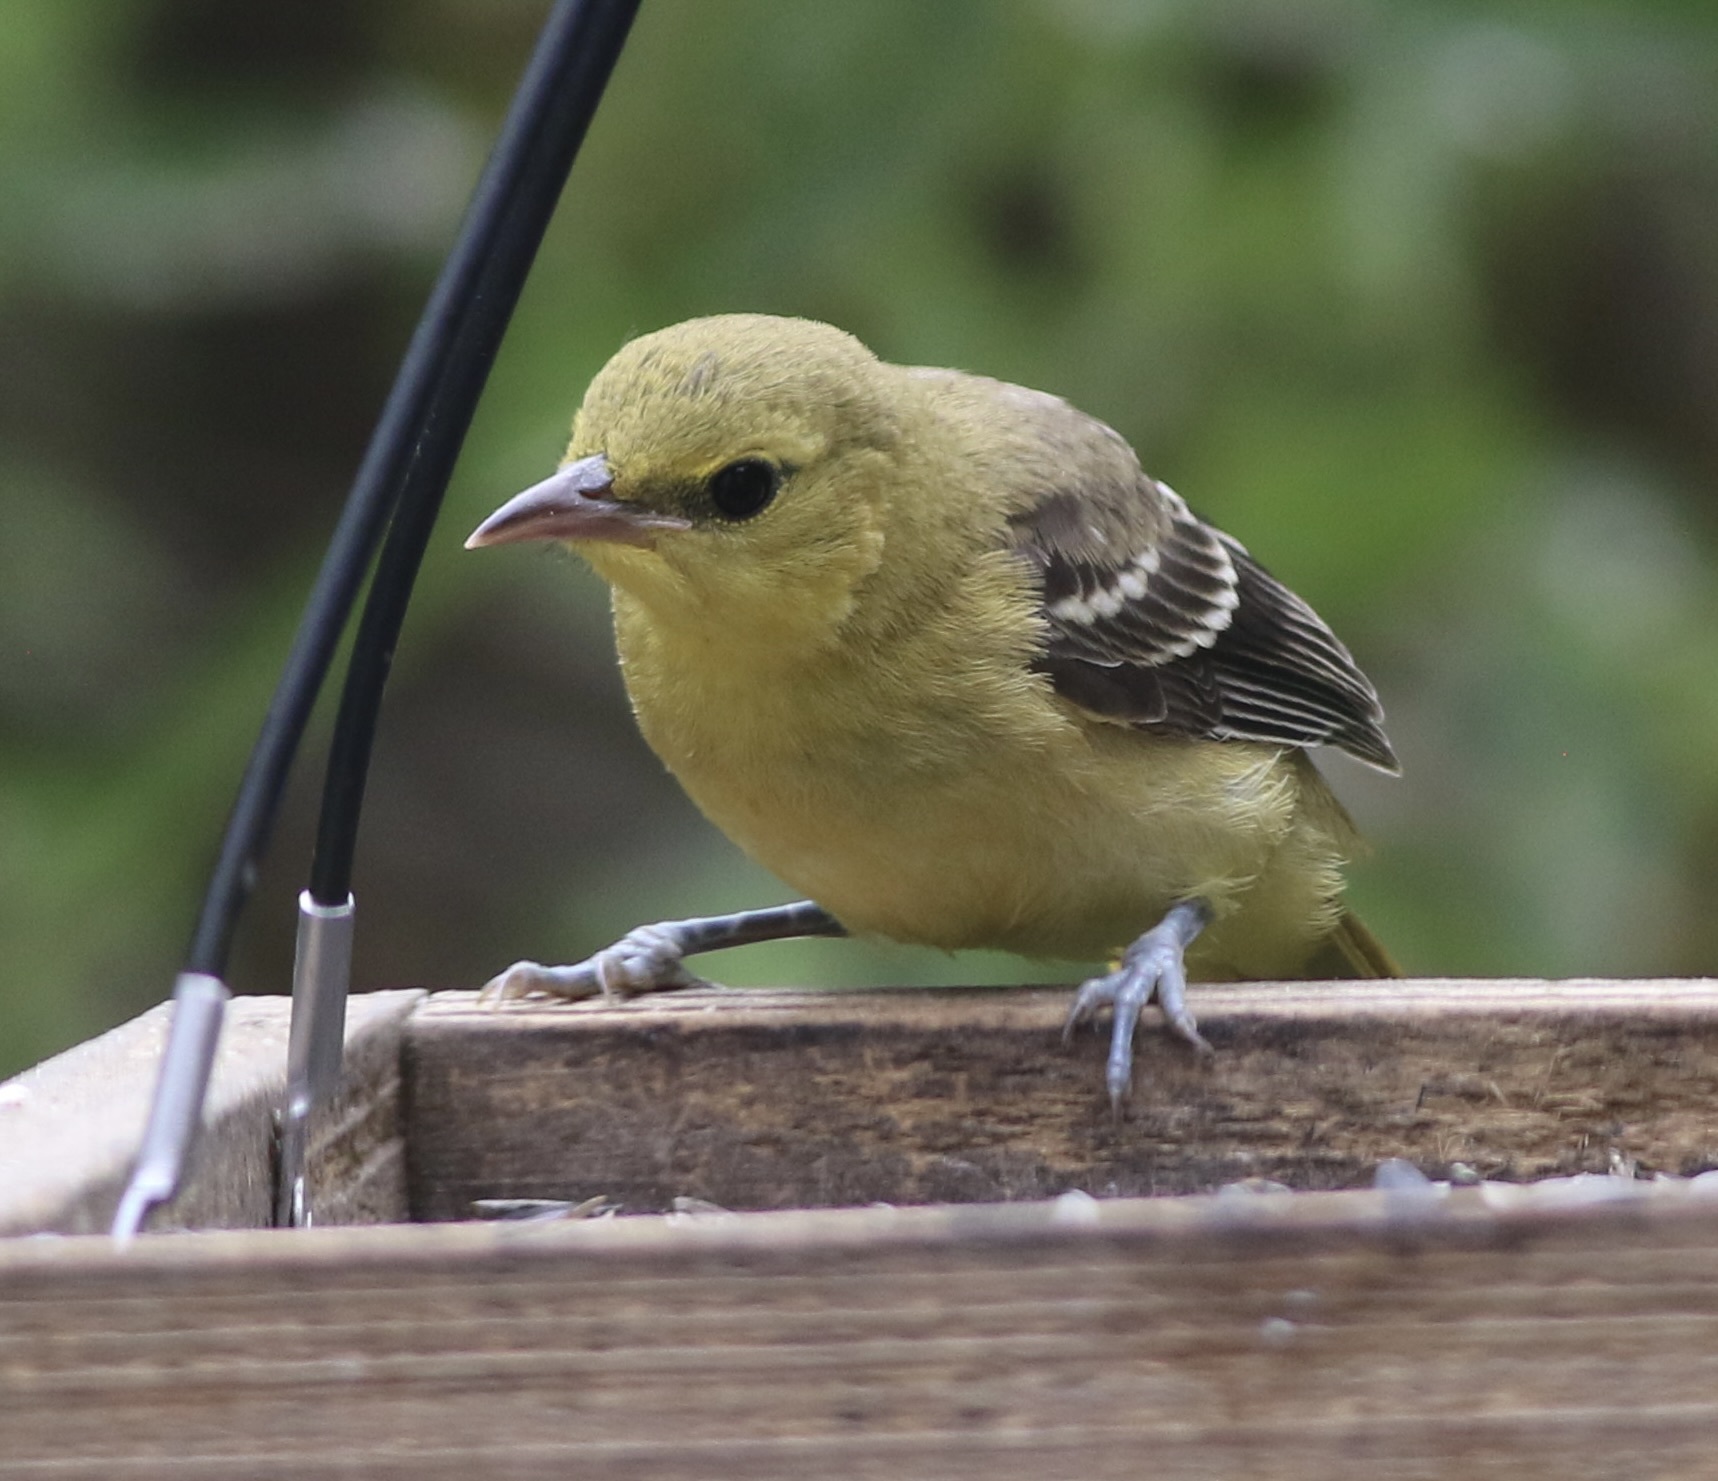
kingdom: Animalia
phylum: Chordata
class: Aves
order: Passeriformes
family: Icteridae
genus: Icterus
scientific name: Icterus cucullatus
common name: Hooded oriole
